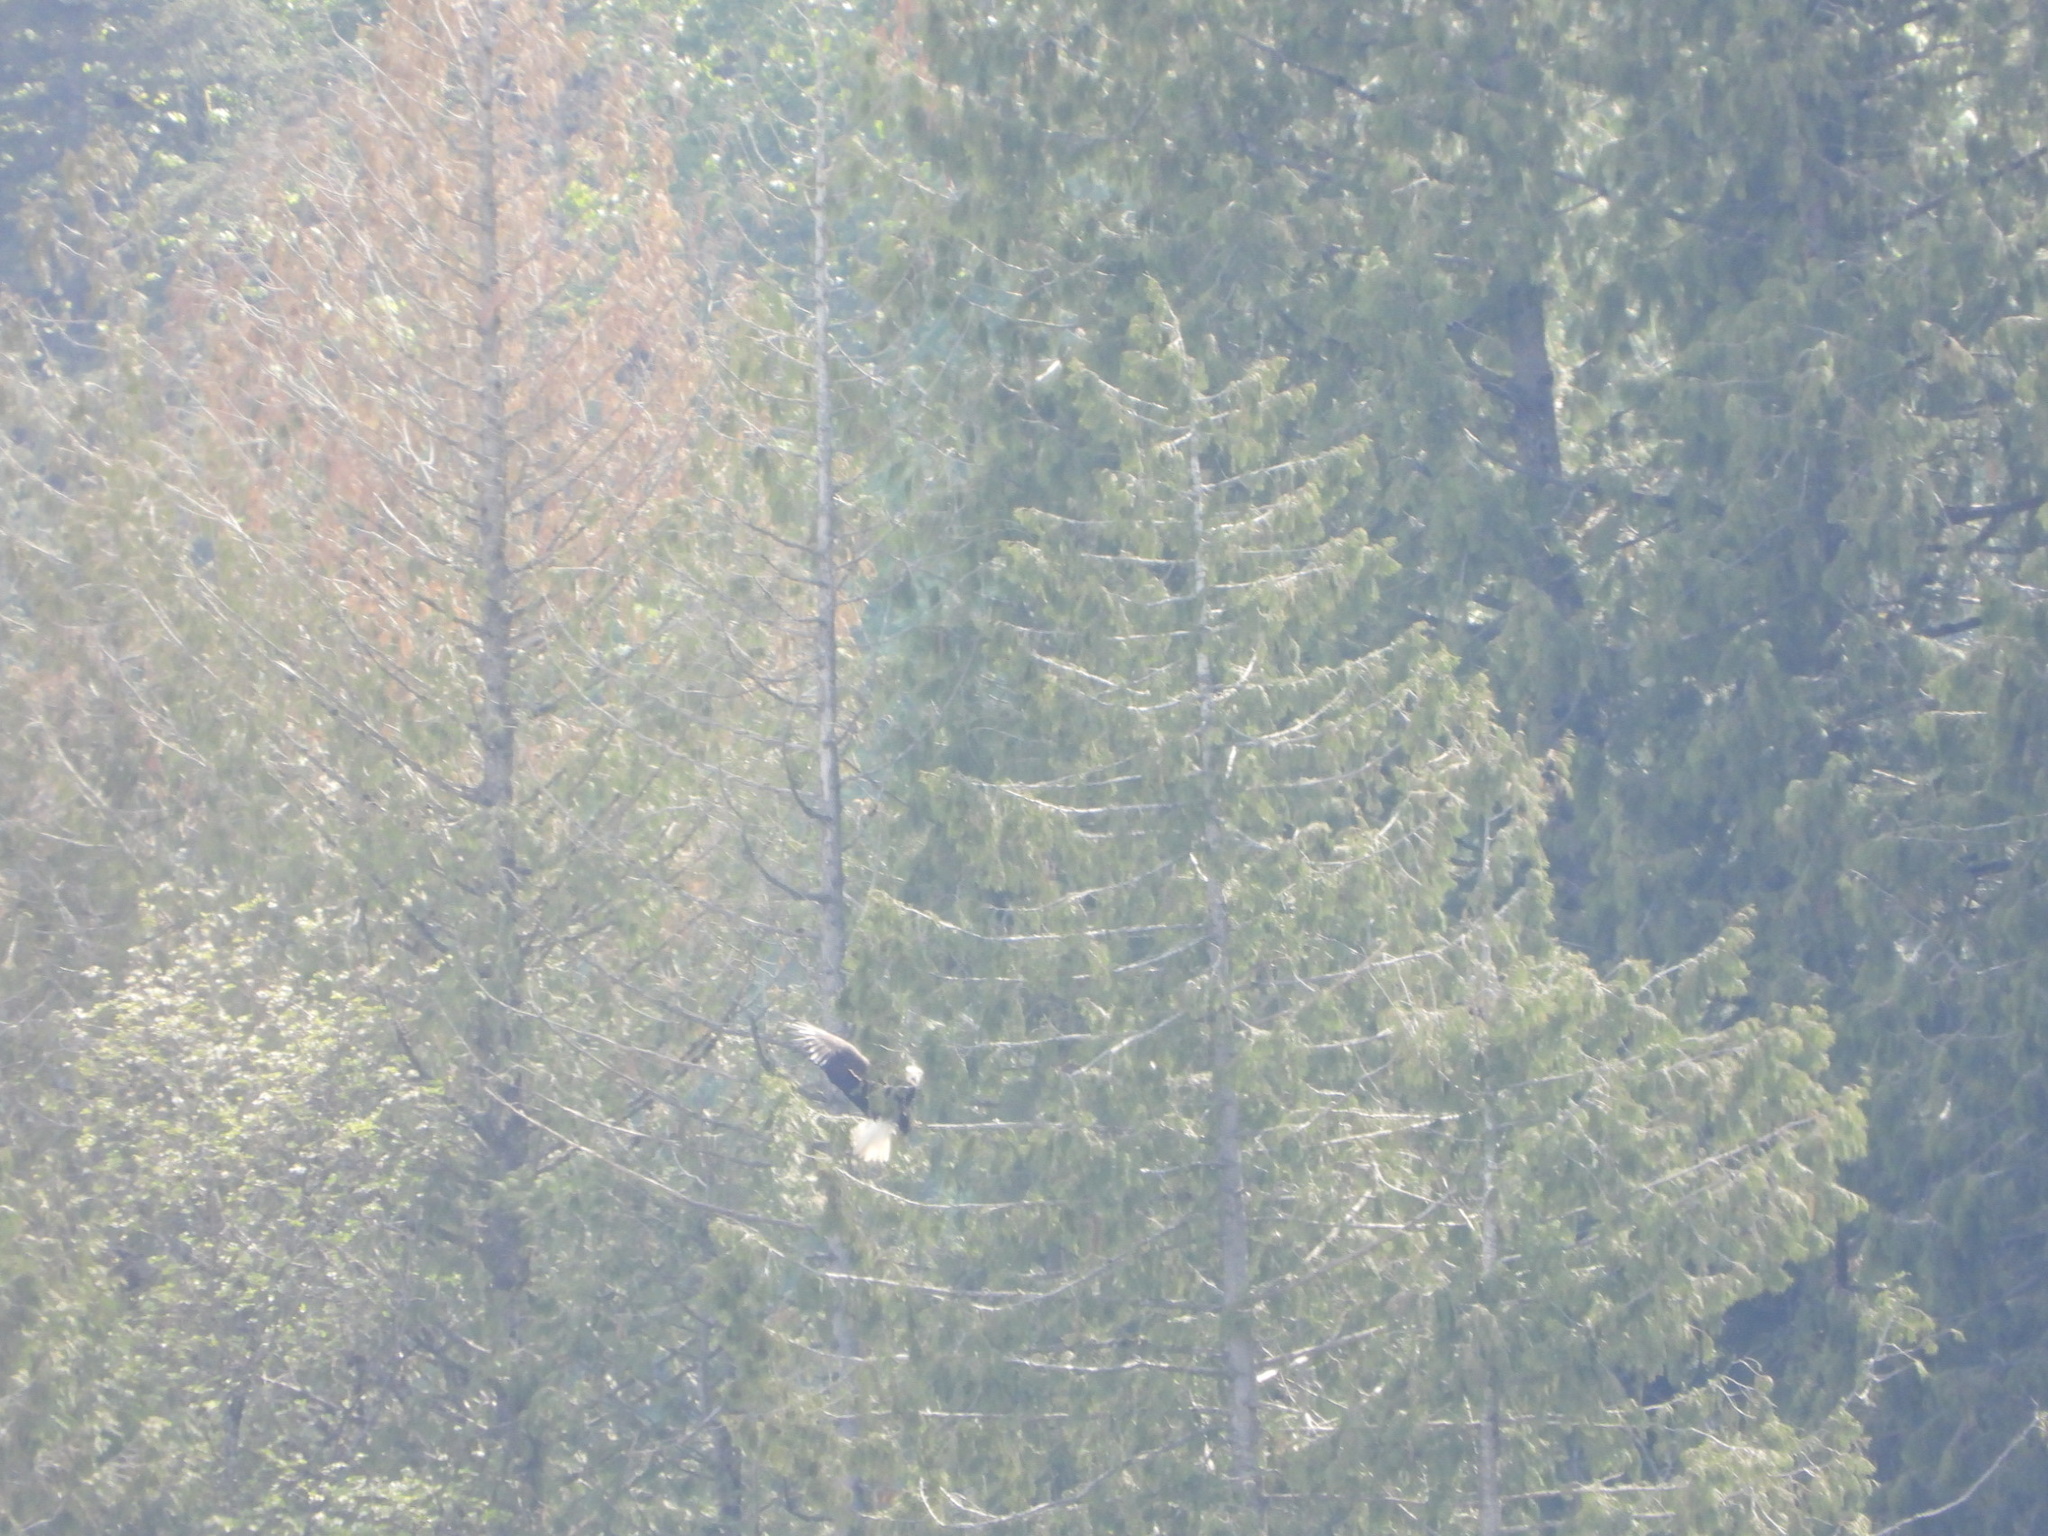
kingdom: Animalia
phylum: Chordata
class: Aves
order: Accipitriformes
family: Accipitridae
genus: Haliaeetus
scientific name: Haliaeetus leucocephalus
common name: Bald eagle
